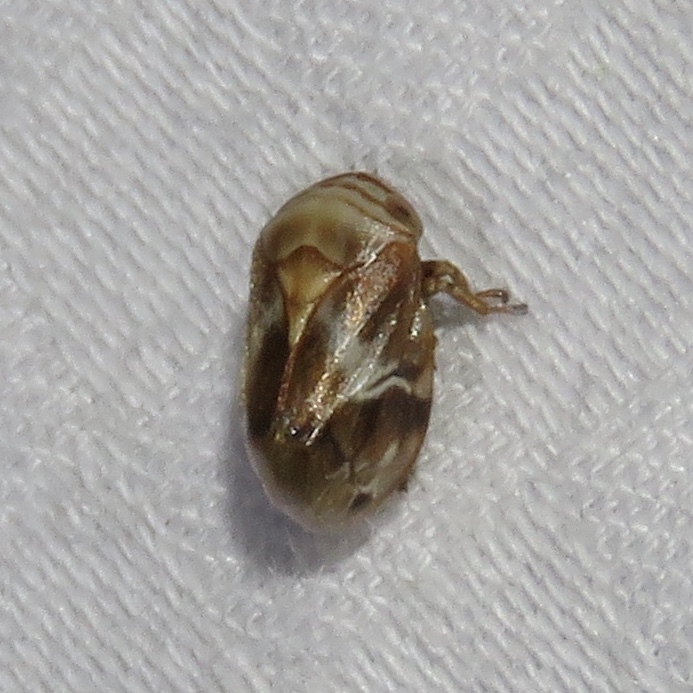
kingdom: Animalia
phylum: Arthropoda
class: Insecta
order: Hemiptera
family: Clastopteridae
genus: Clastoptera
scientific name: Clastoptera obtusa
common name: Alder spittlebug
